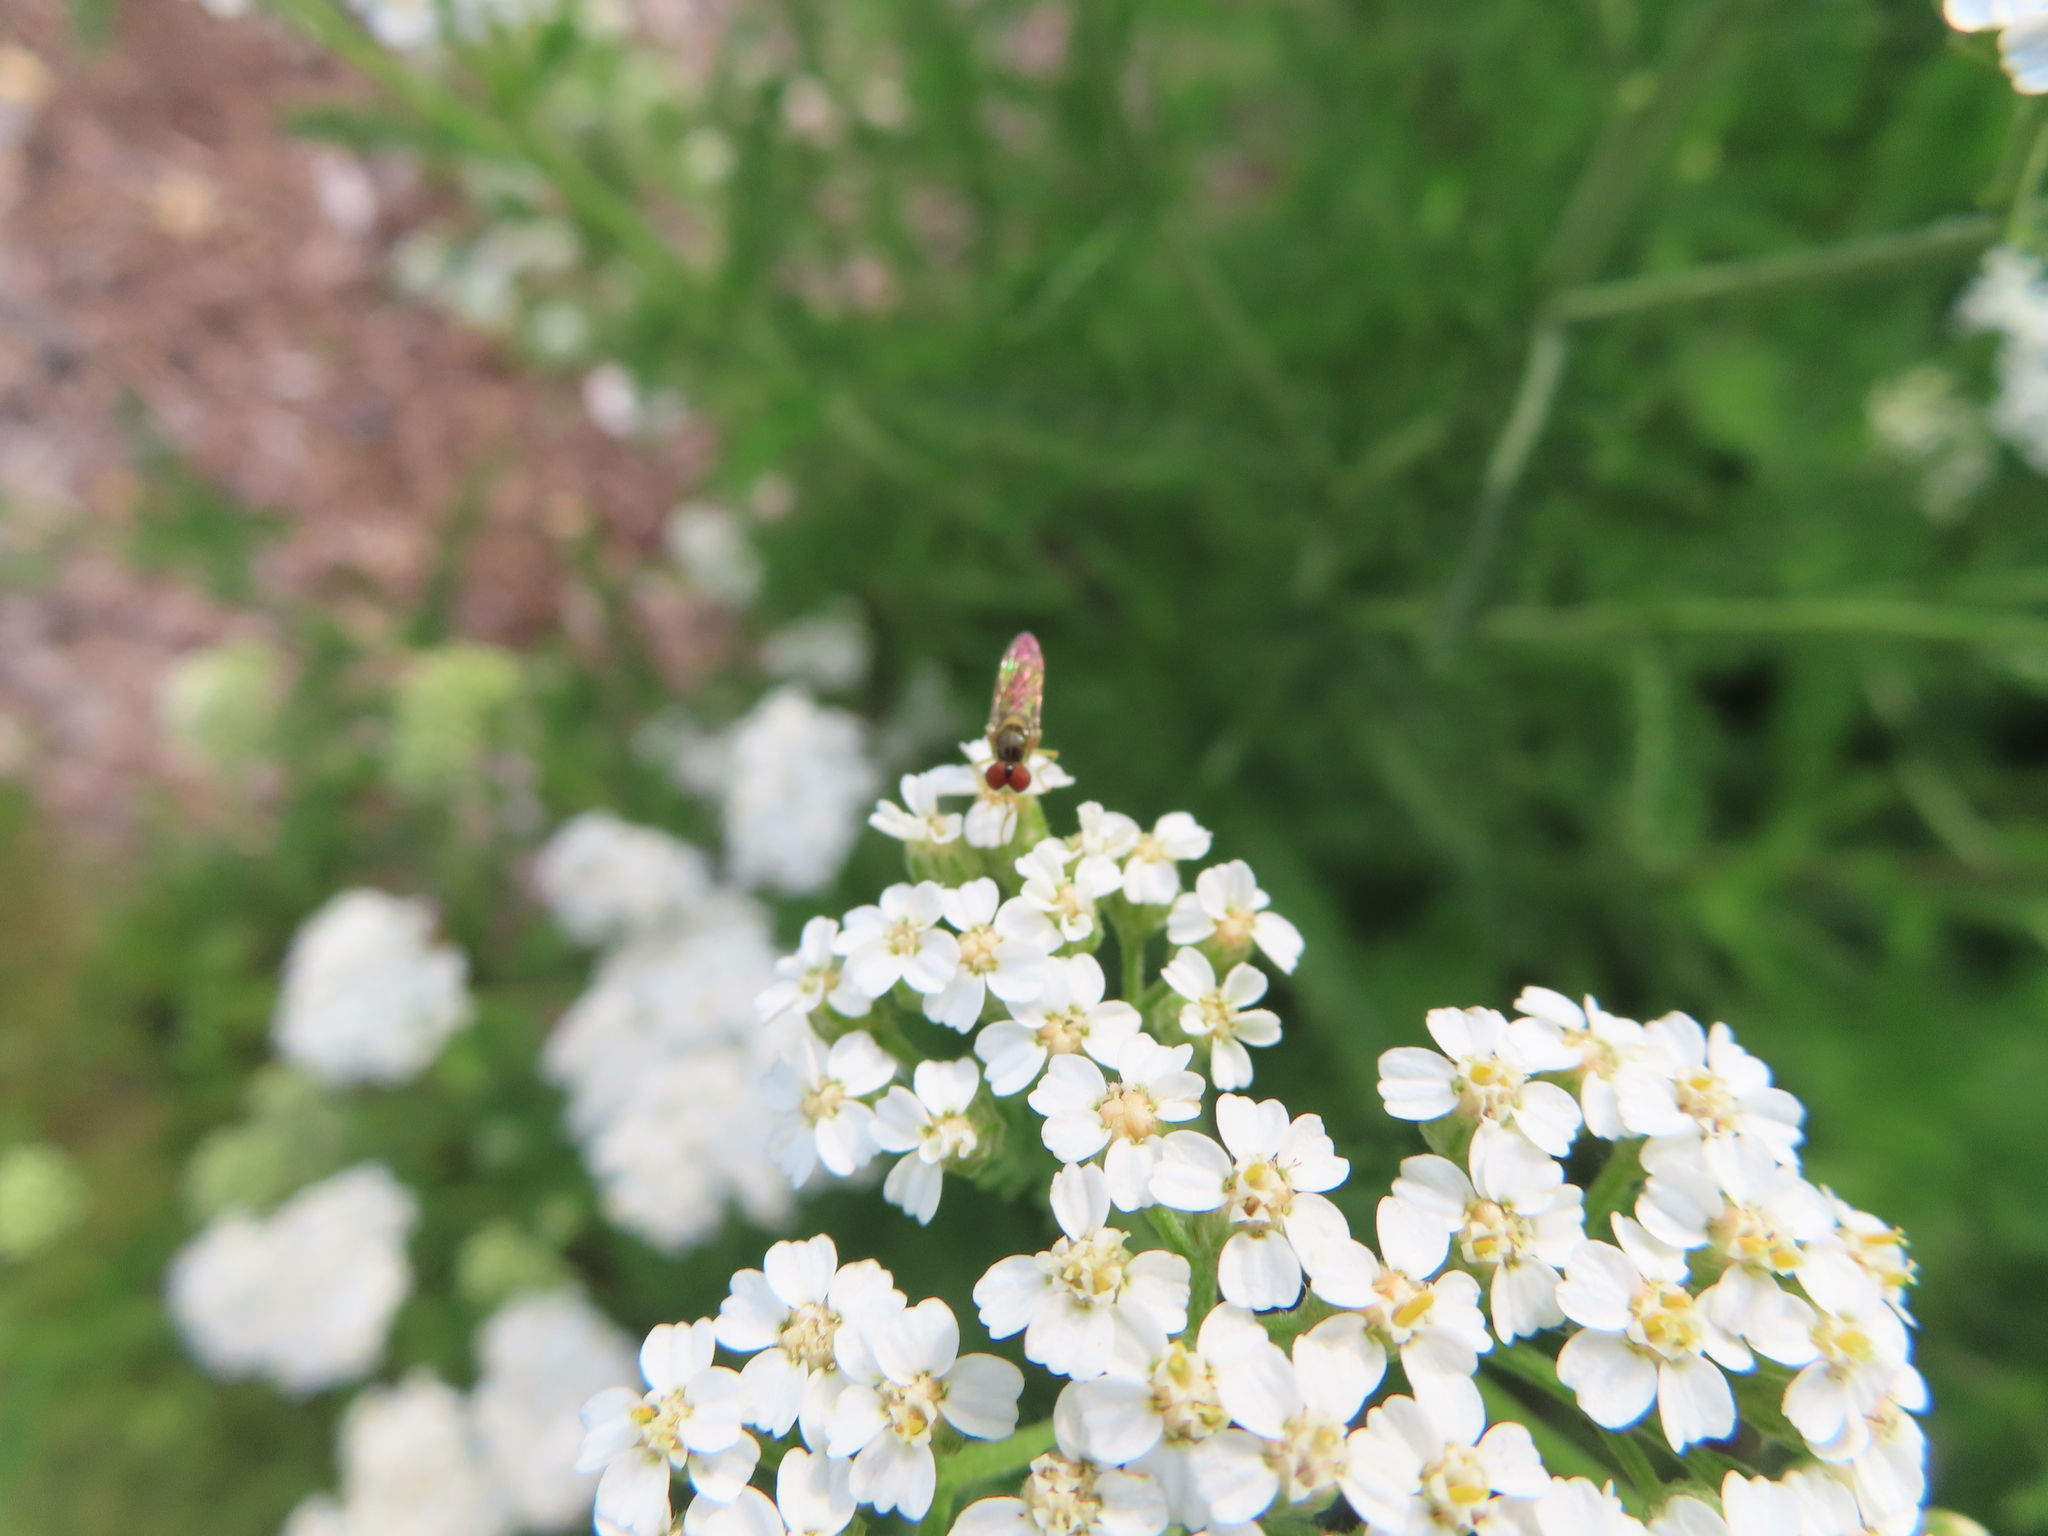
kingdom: Animalia
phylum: Arthropoda
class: Insecta
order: Diptera
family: Syrphidae
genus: Toxomerus
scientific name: Toxomerus marginatus
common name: Syrphid fly
